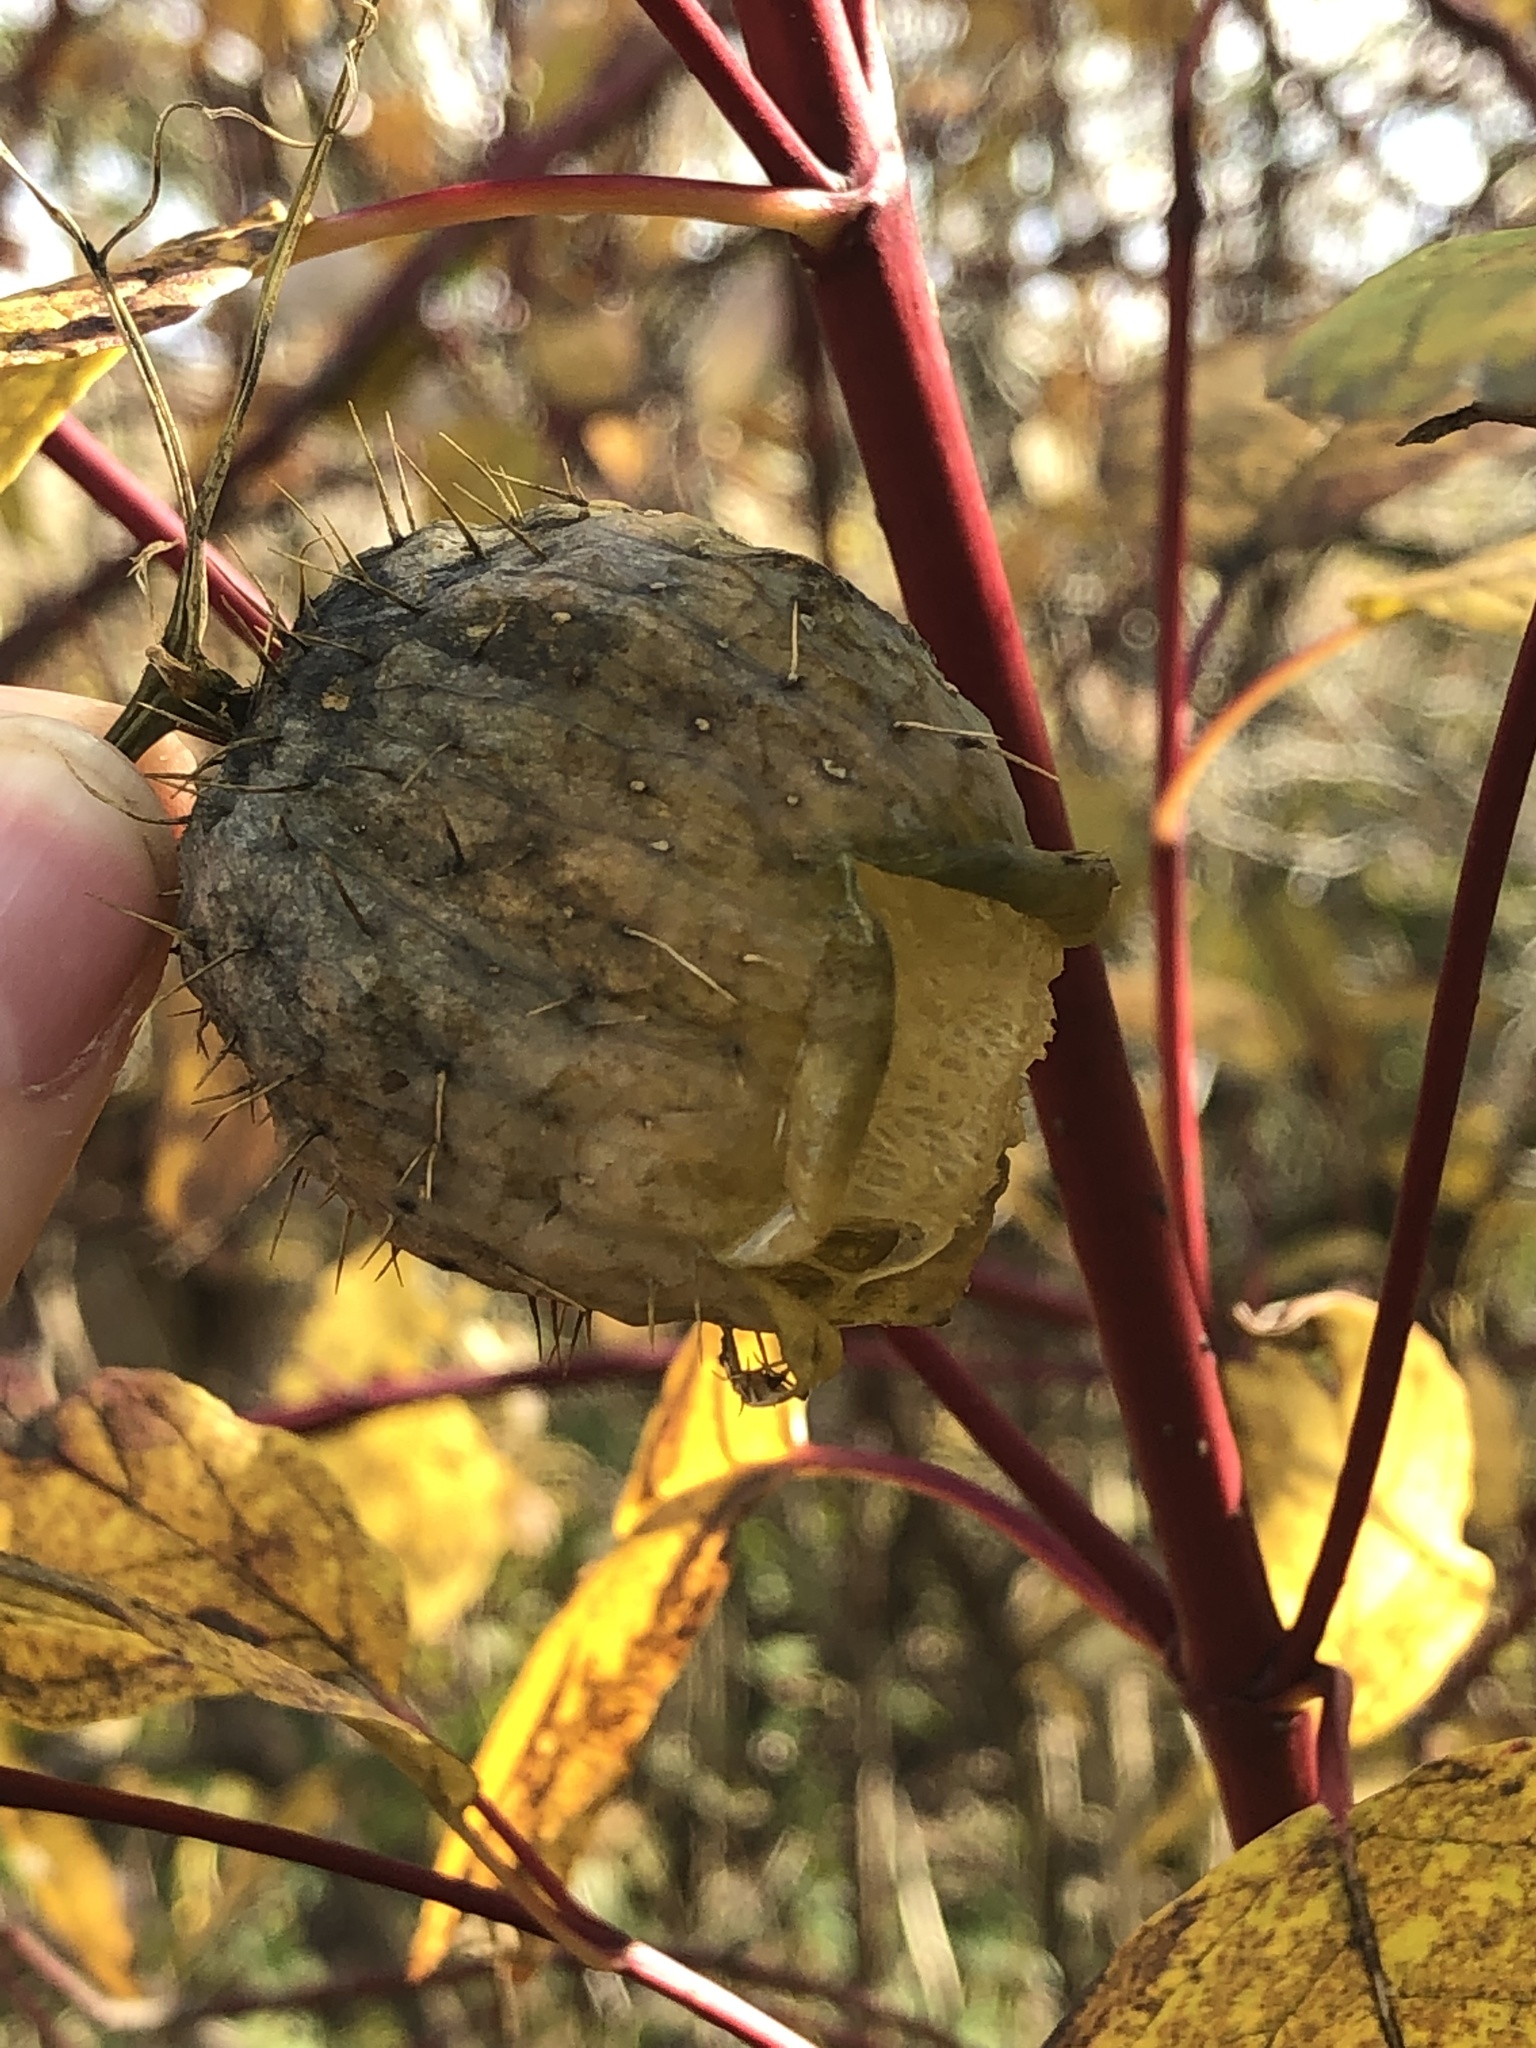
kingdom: Plantae
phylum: Tracheophyta
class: Magnoliopsida
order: Cucurbitales
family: Cucurbitaceae
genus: Echinocystis
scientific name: Echinocystis lobata
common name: Wild cucumber
